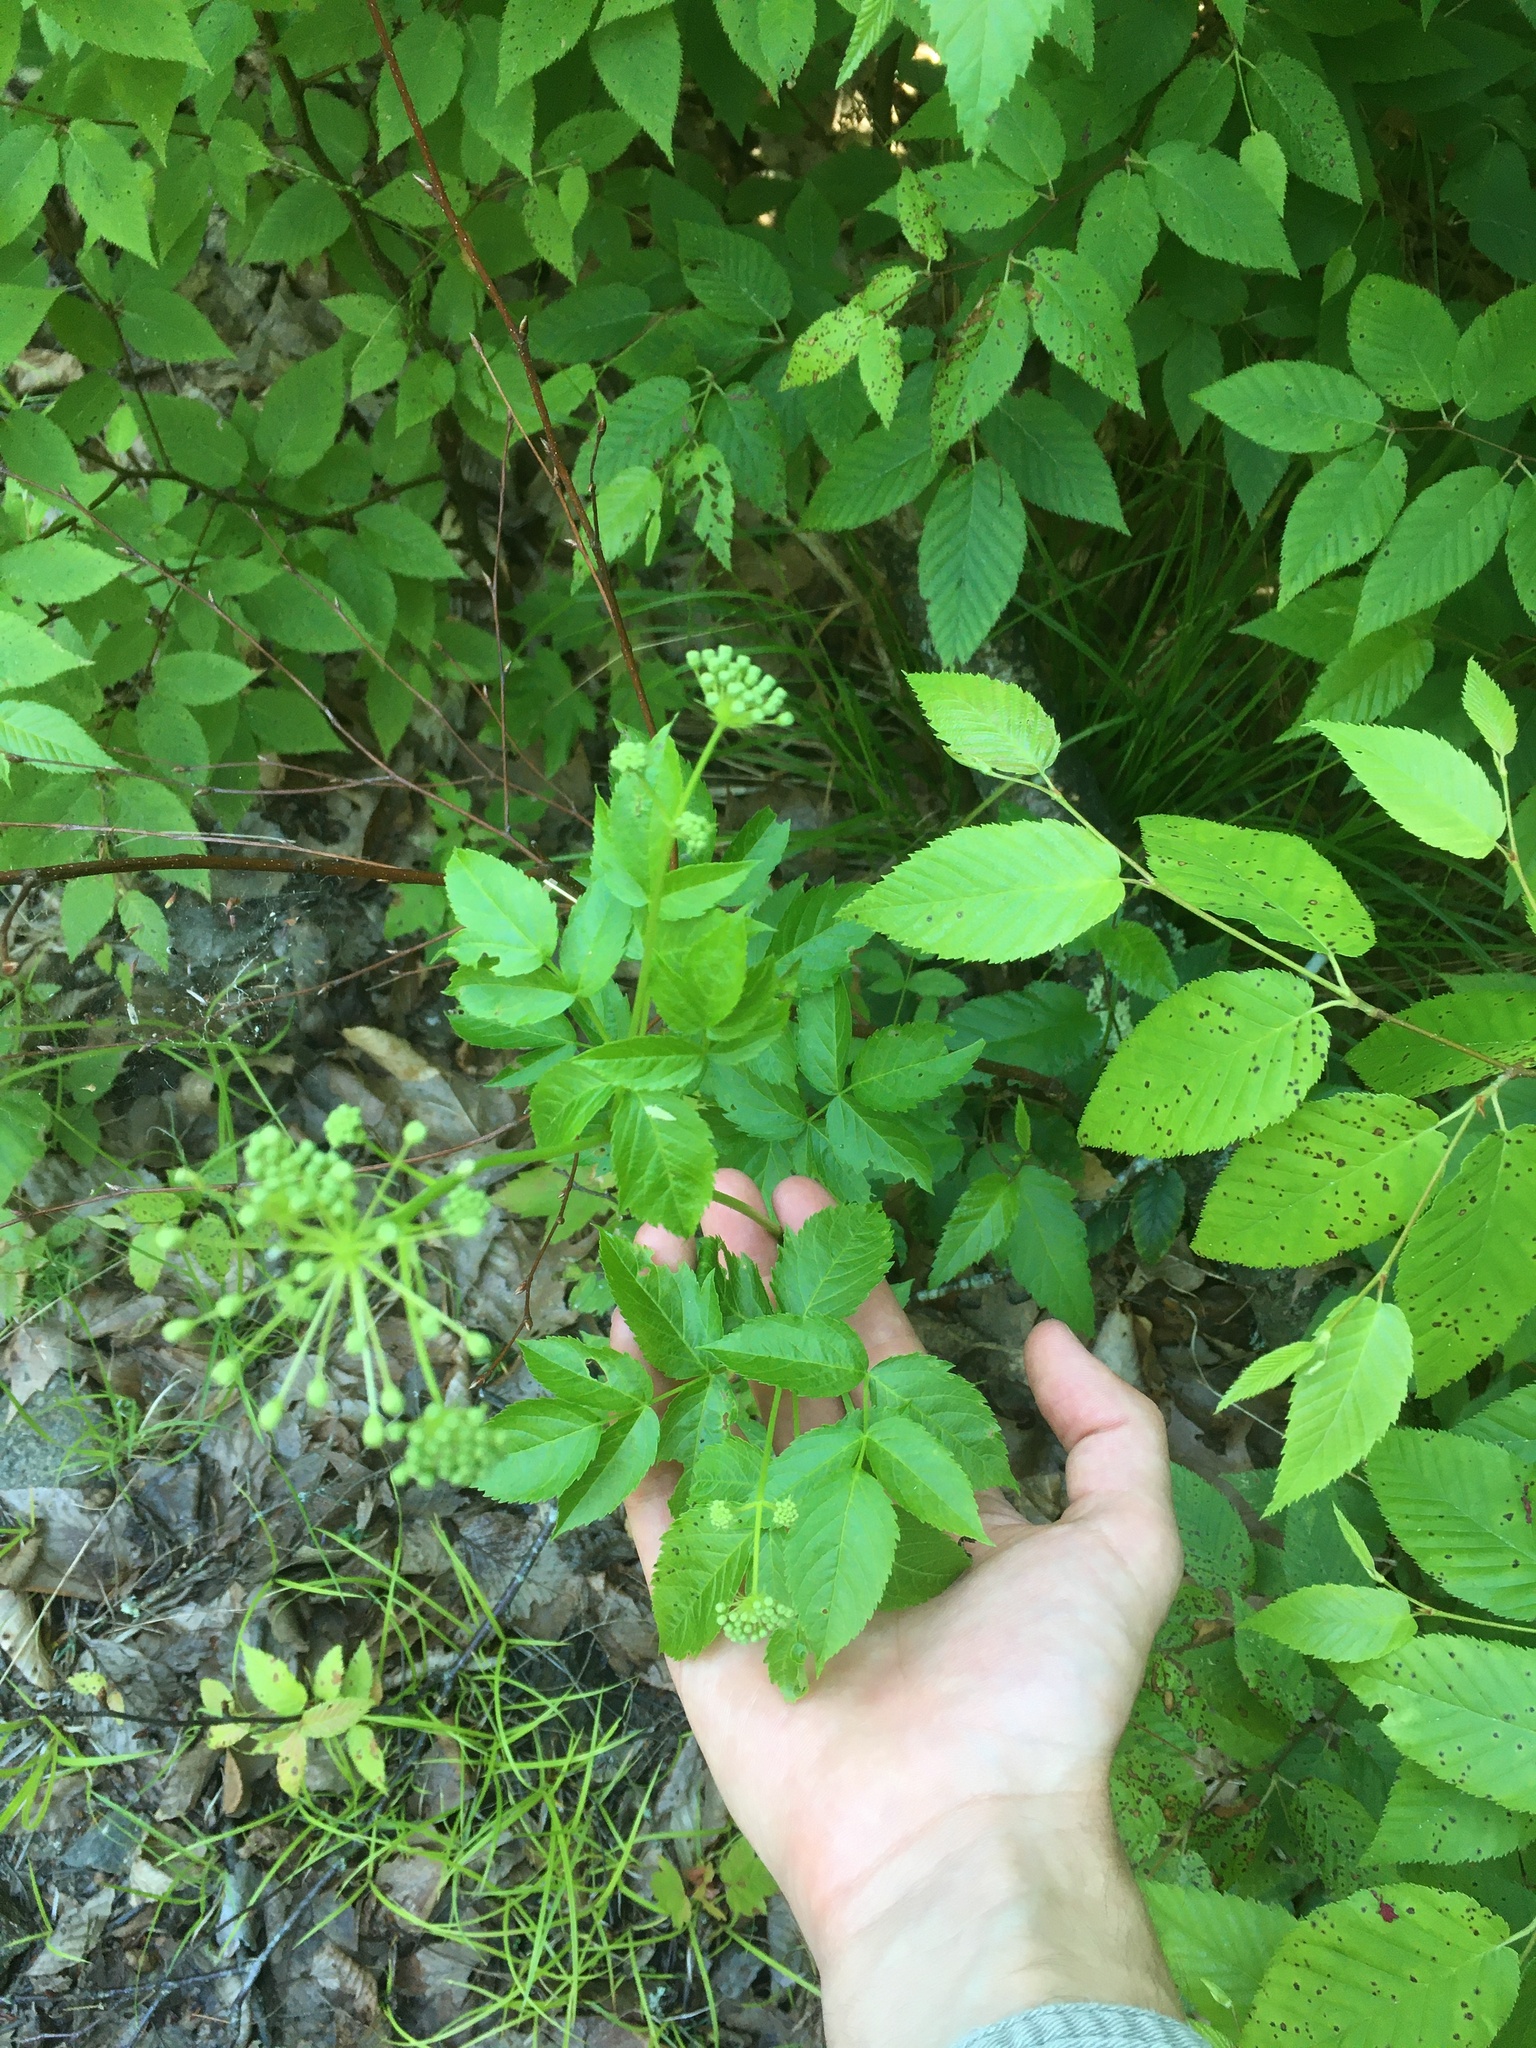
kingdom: Plantae
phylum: Tracheophyta
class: Magnoliopsida
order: Apiales
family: Araliaceae
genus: Aralia
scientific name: Aralia hispida
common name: Bristly sarsaparilla
